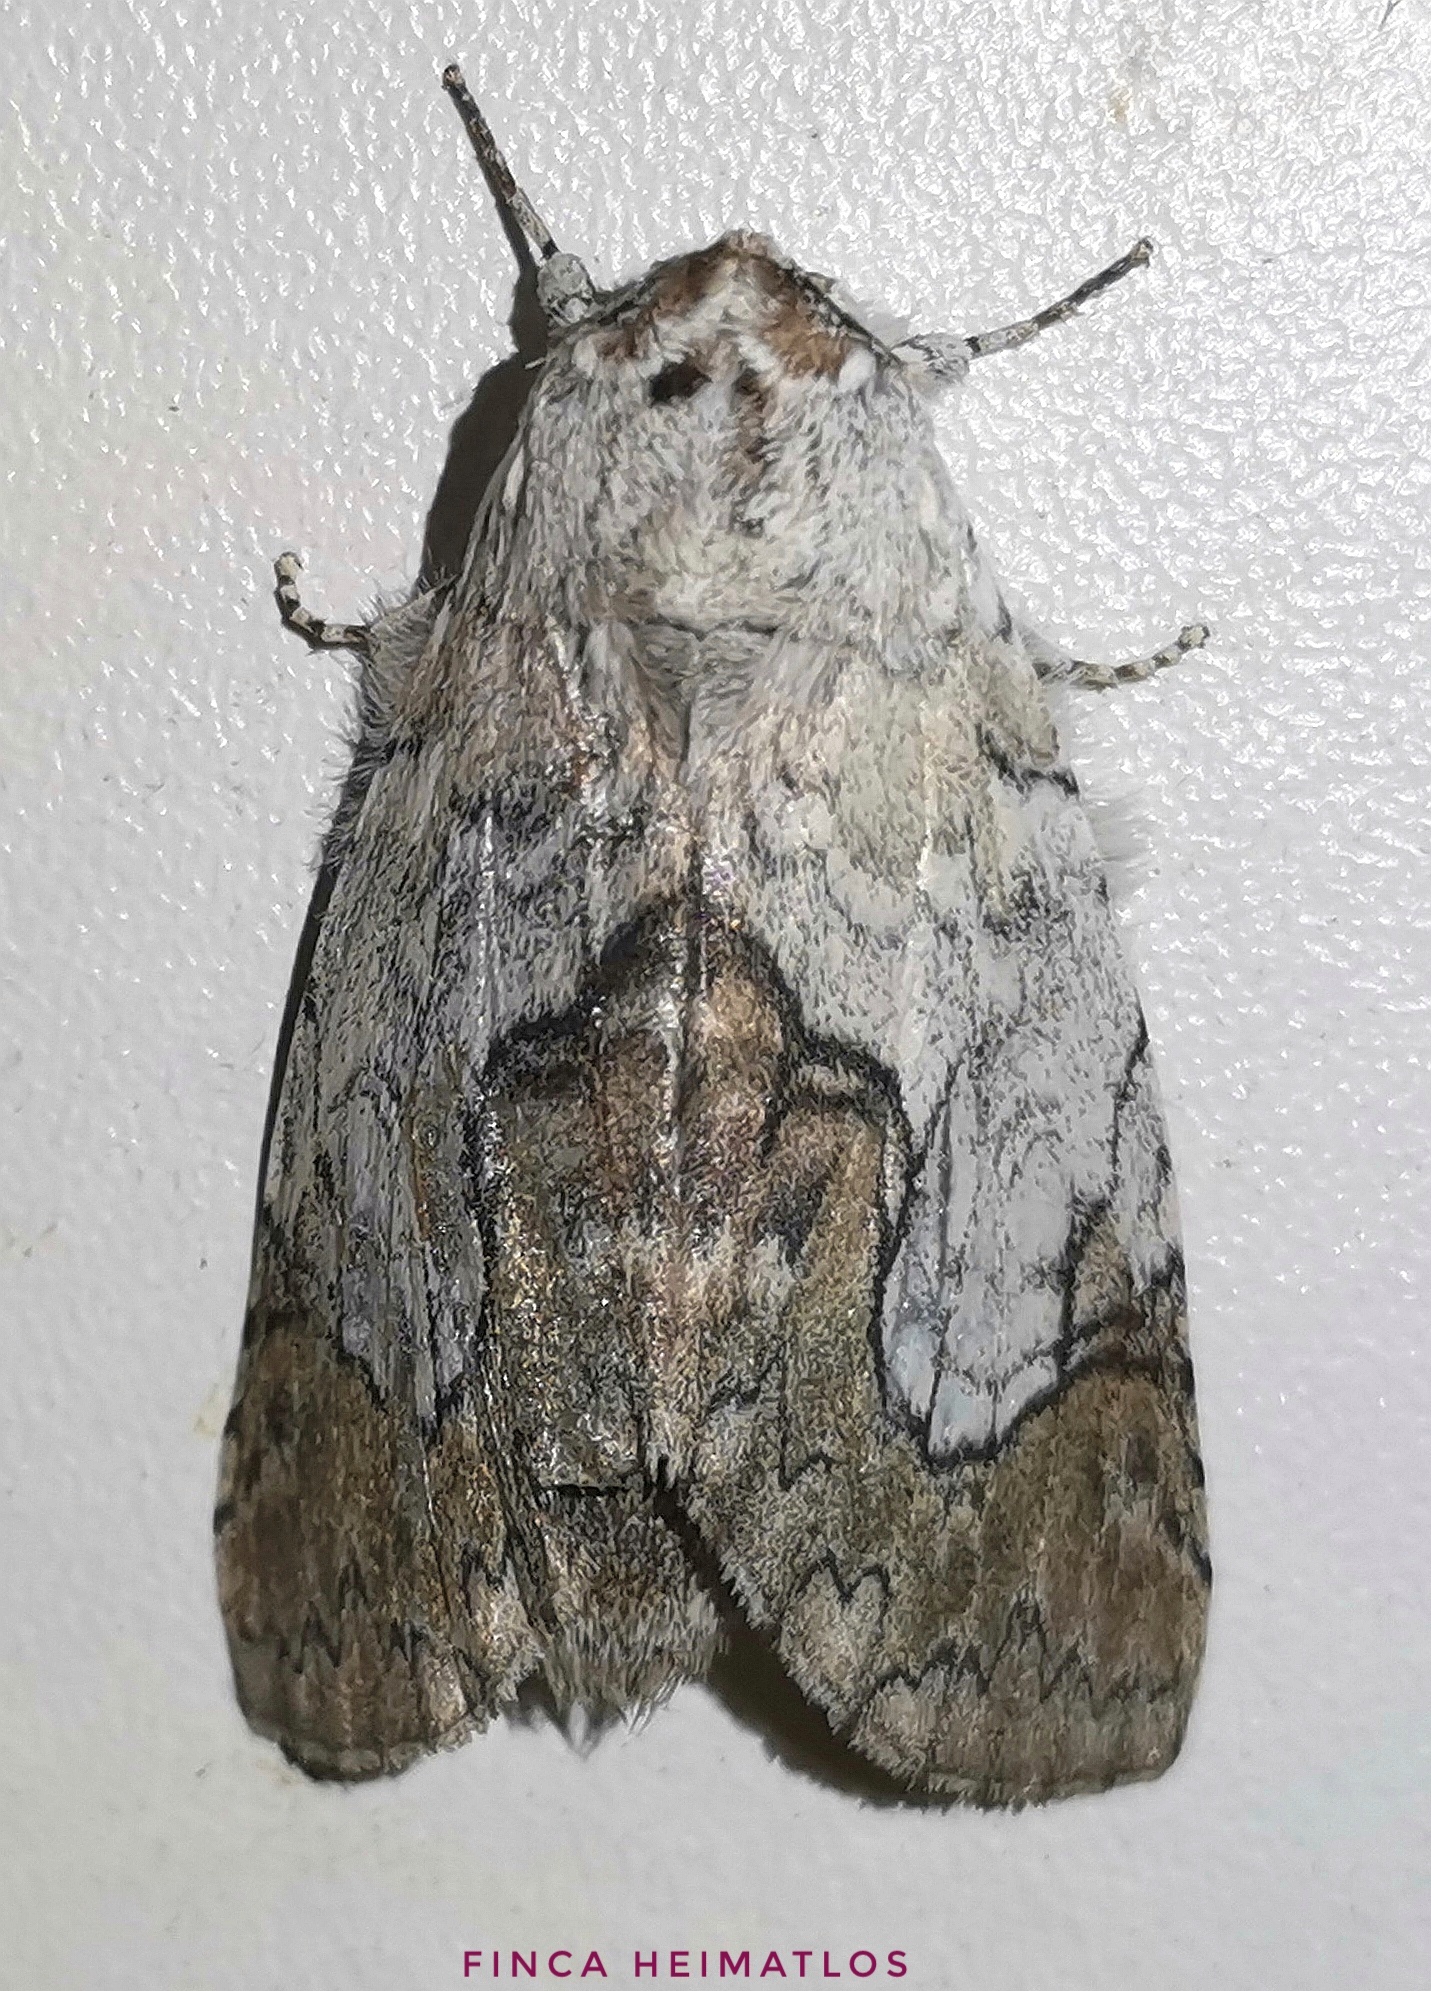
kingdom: Animalia
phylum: Arthropoda
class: Insecta
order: Lepidoptera
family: Notodontidae
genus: Ginaldia
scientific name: Ginaldia
